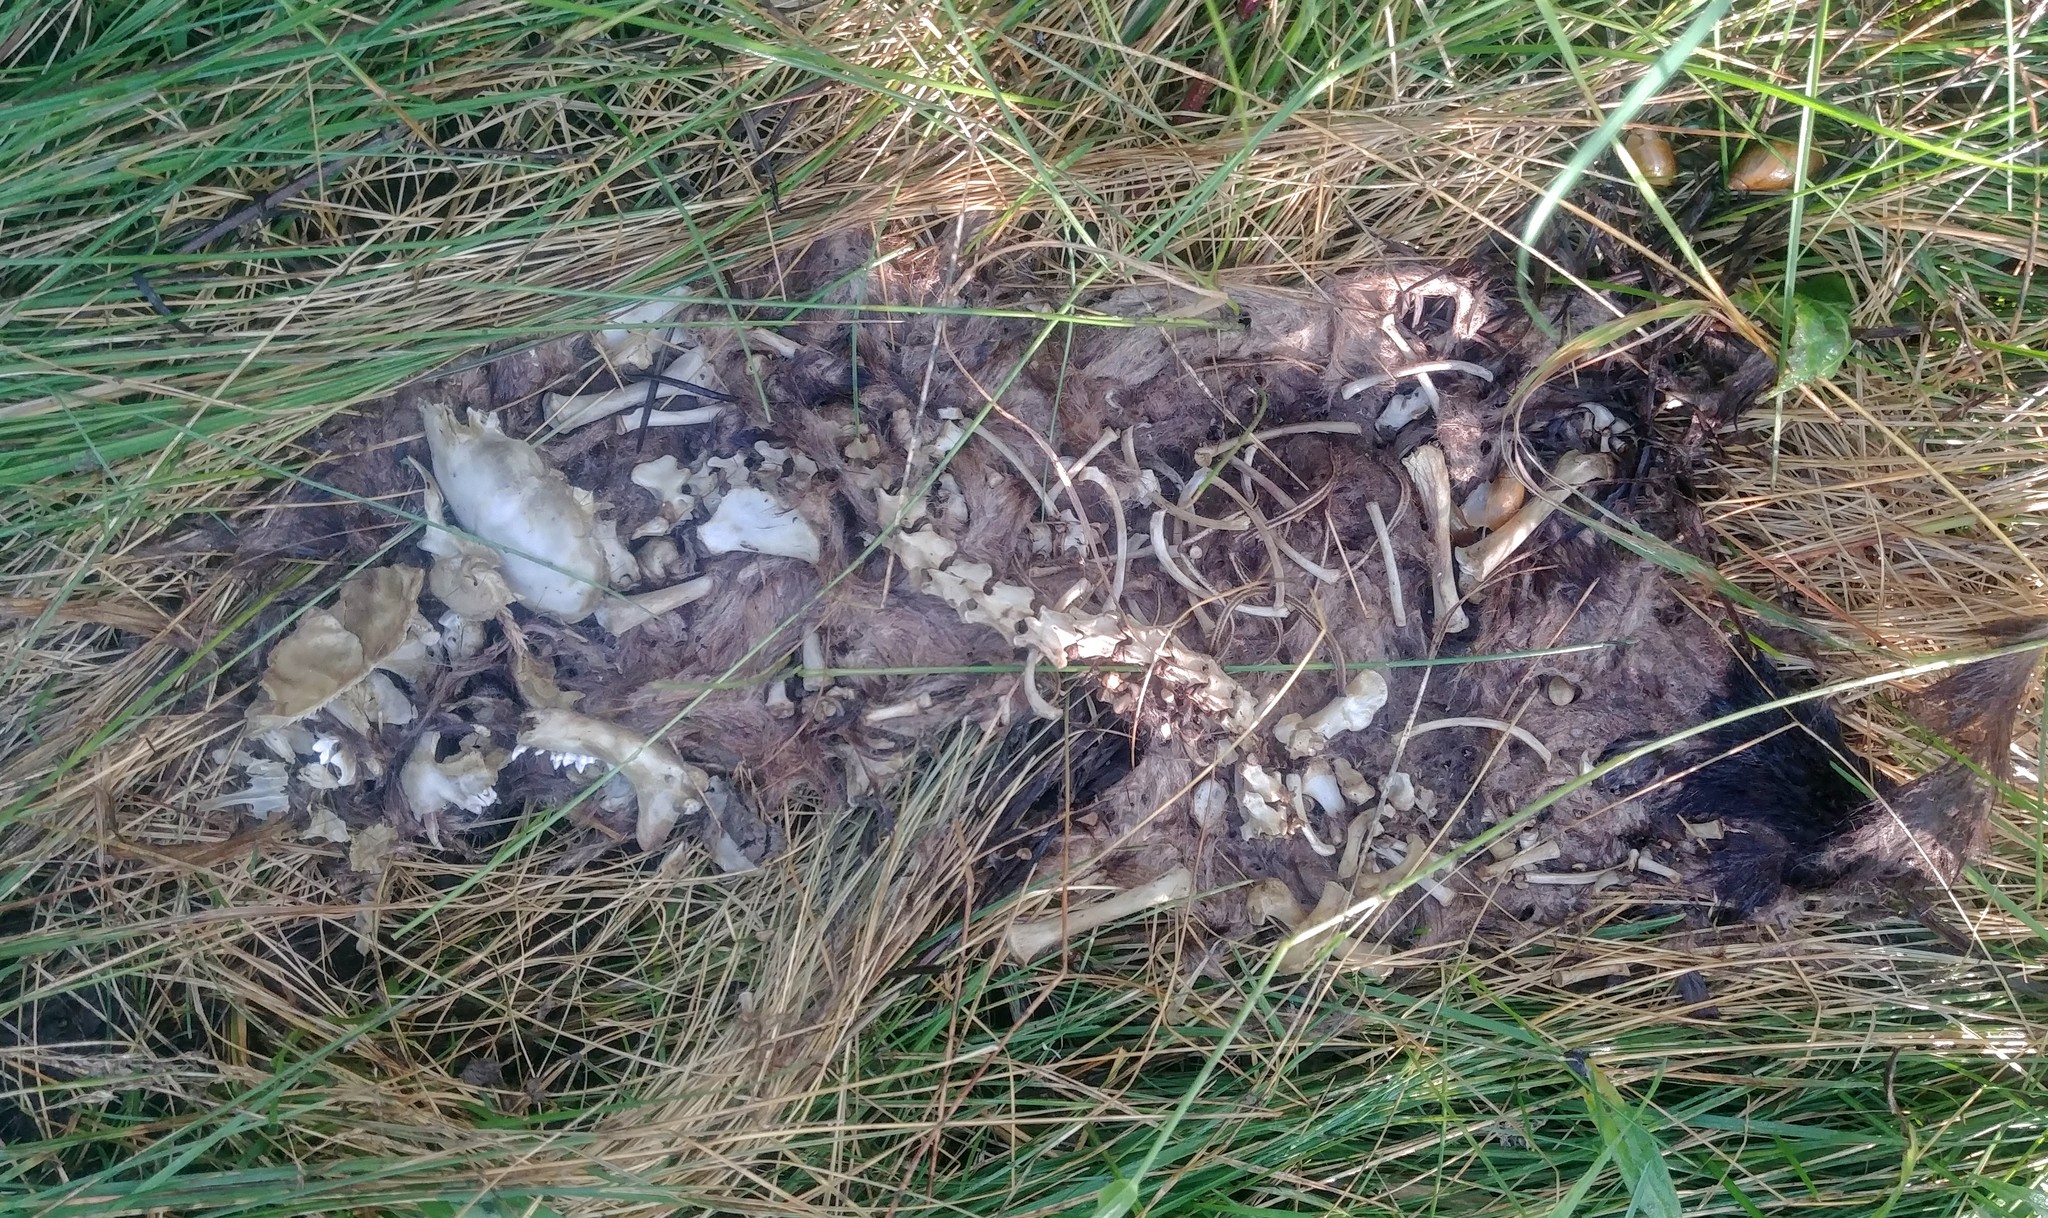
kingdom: Animalia
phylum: Chordata
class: Mammalia
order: Carnivora
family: Mustelidae
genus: Mustela
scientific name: Mustela
